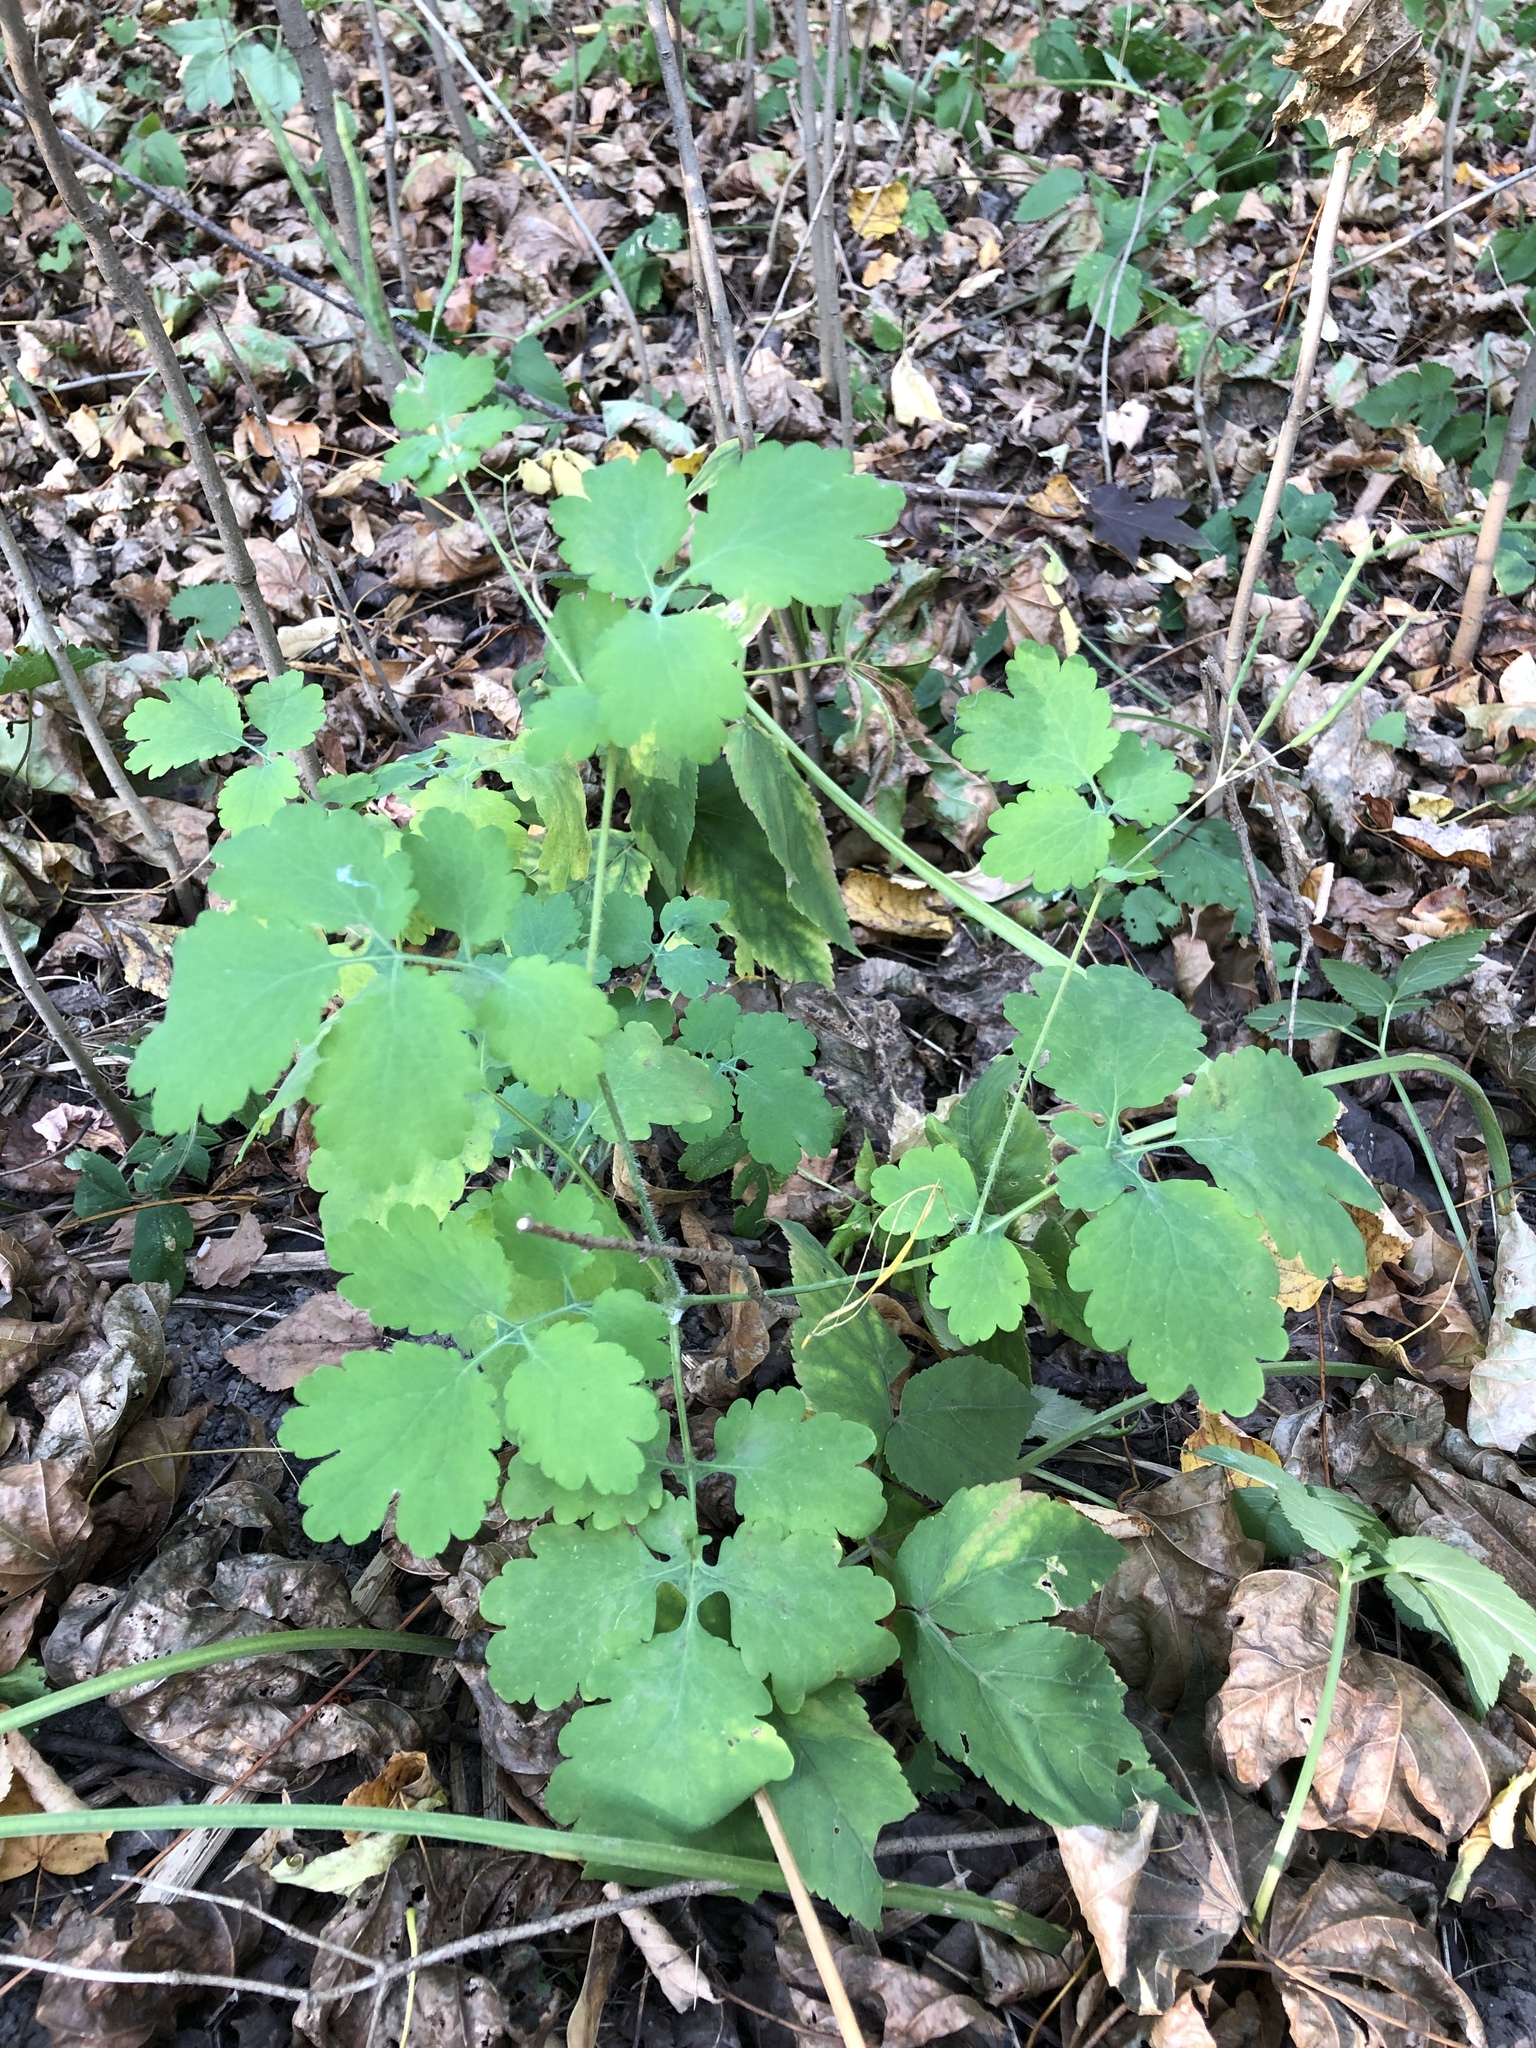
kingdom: Plantae
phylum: Tracheophyta
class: Magnoliopsida
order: Ranunculales
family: Papaveraceae
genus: Chelidonium
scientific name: Chelidonium majus
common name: Greater celandine
